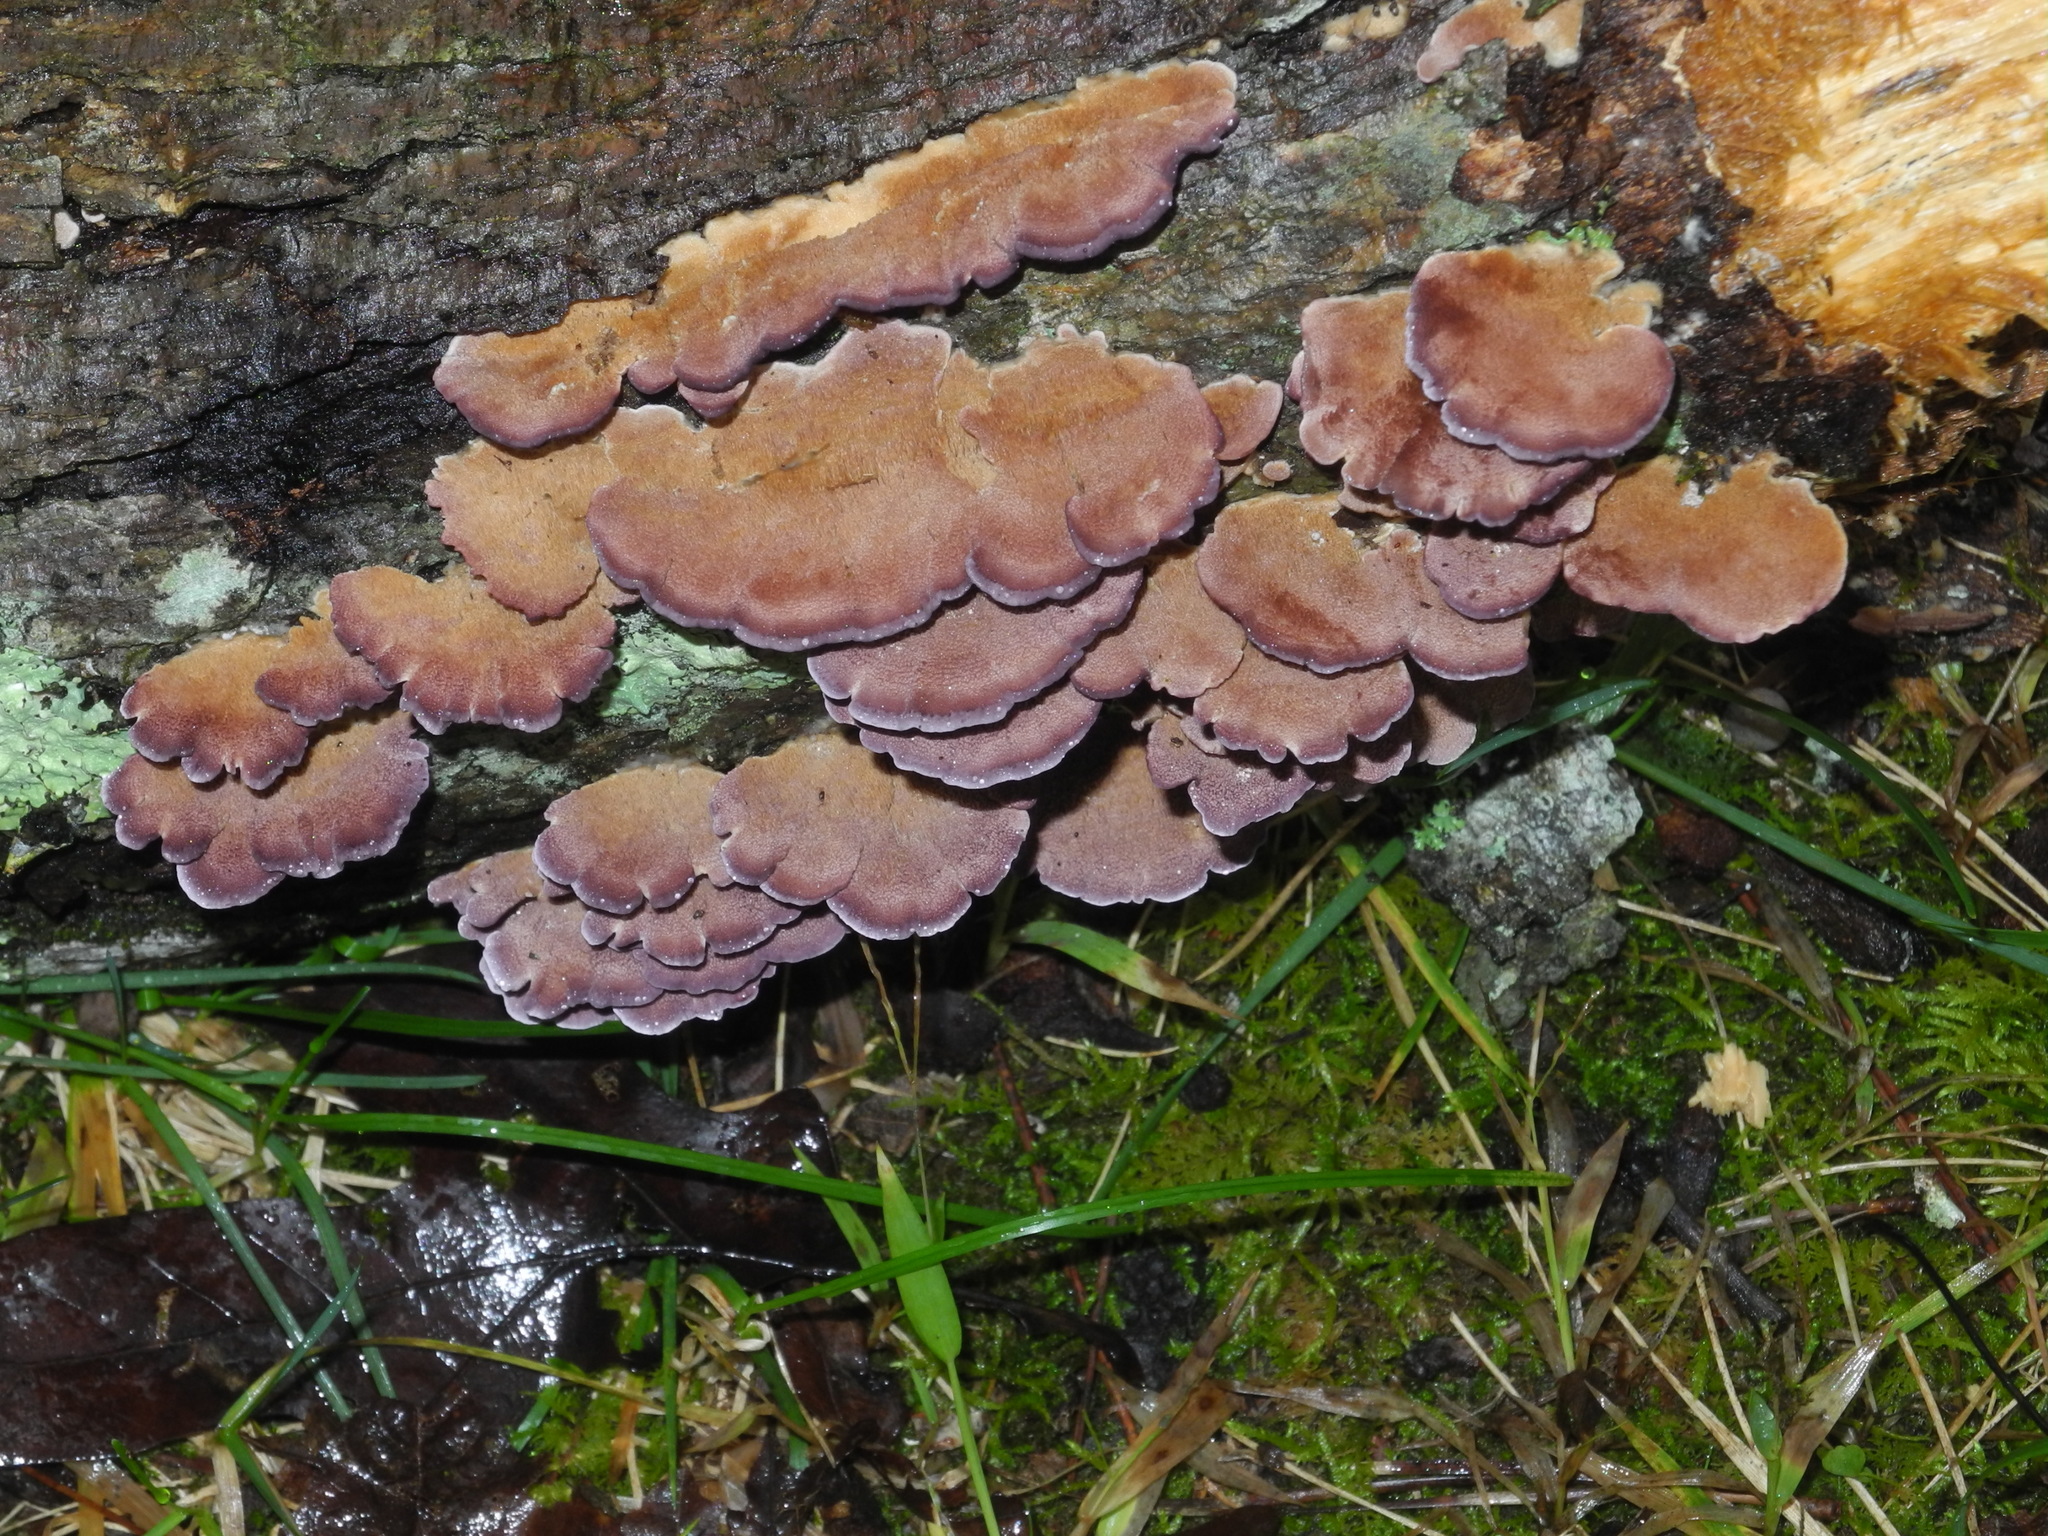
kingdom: Fungi
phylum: Basidiomycota
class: Agaricomycetes
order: Hymenochaetales
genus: Trichaptum
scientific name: Trichaptum abietinum
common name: Purplepore bracket
